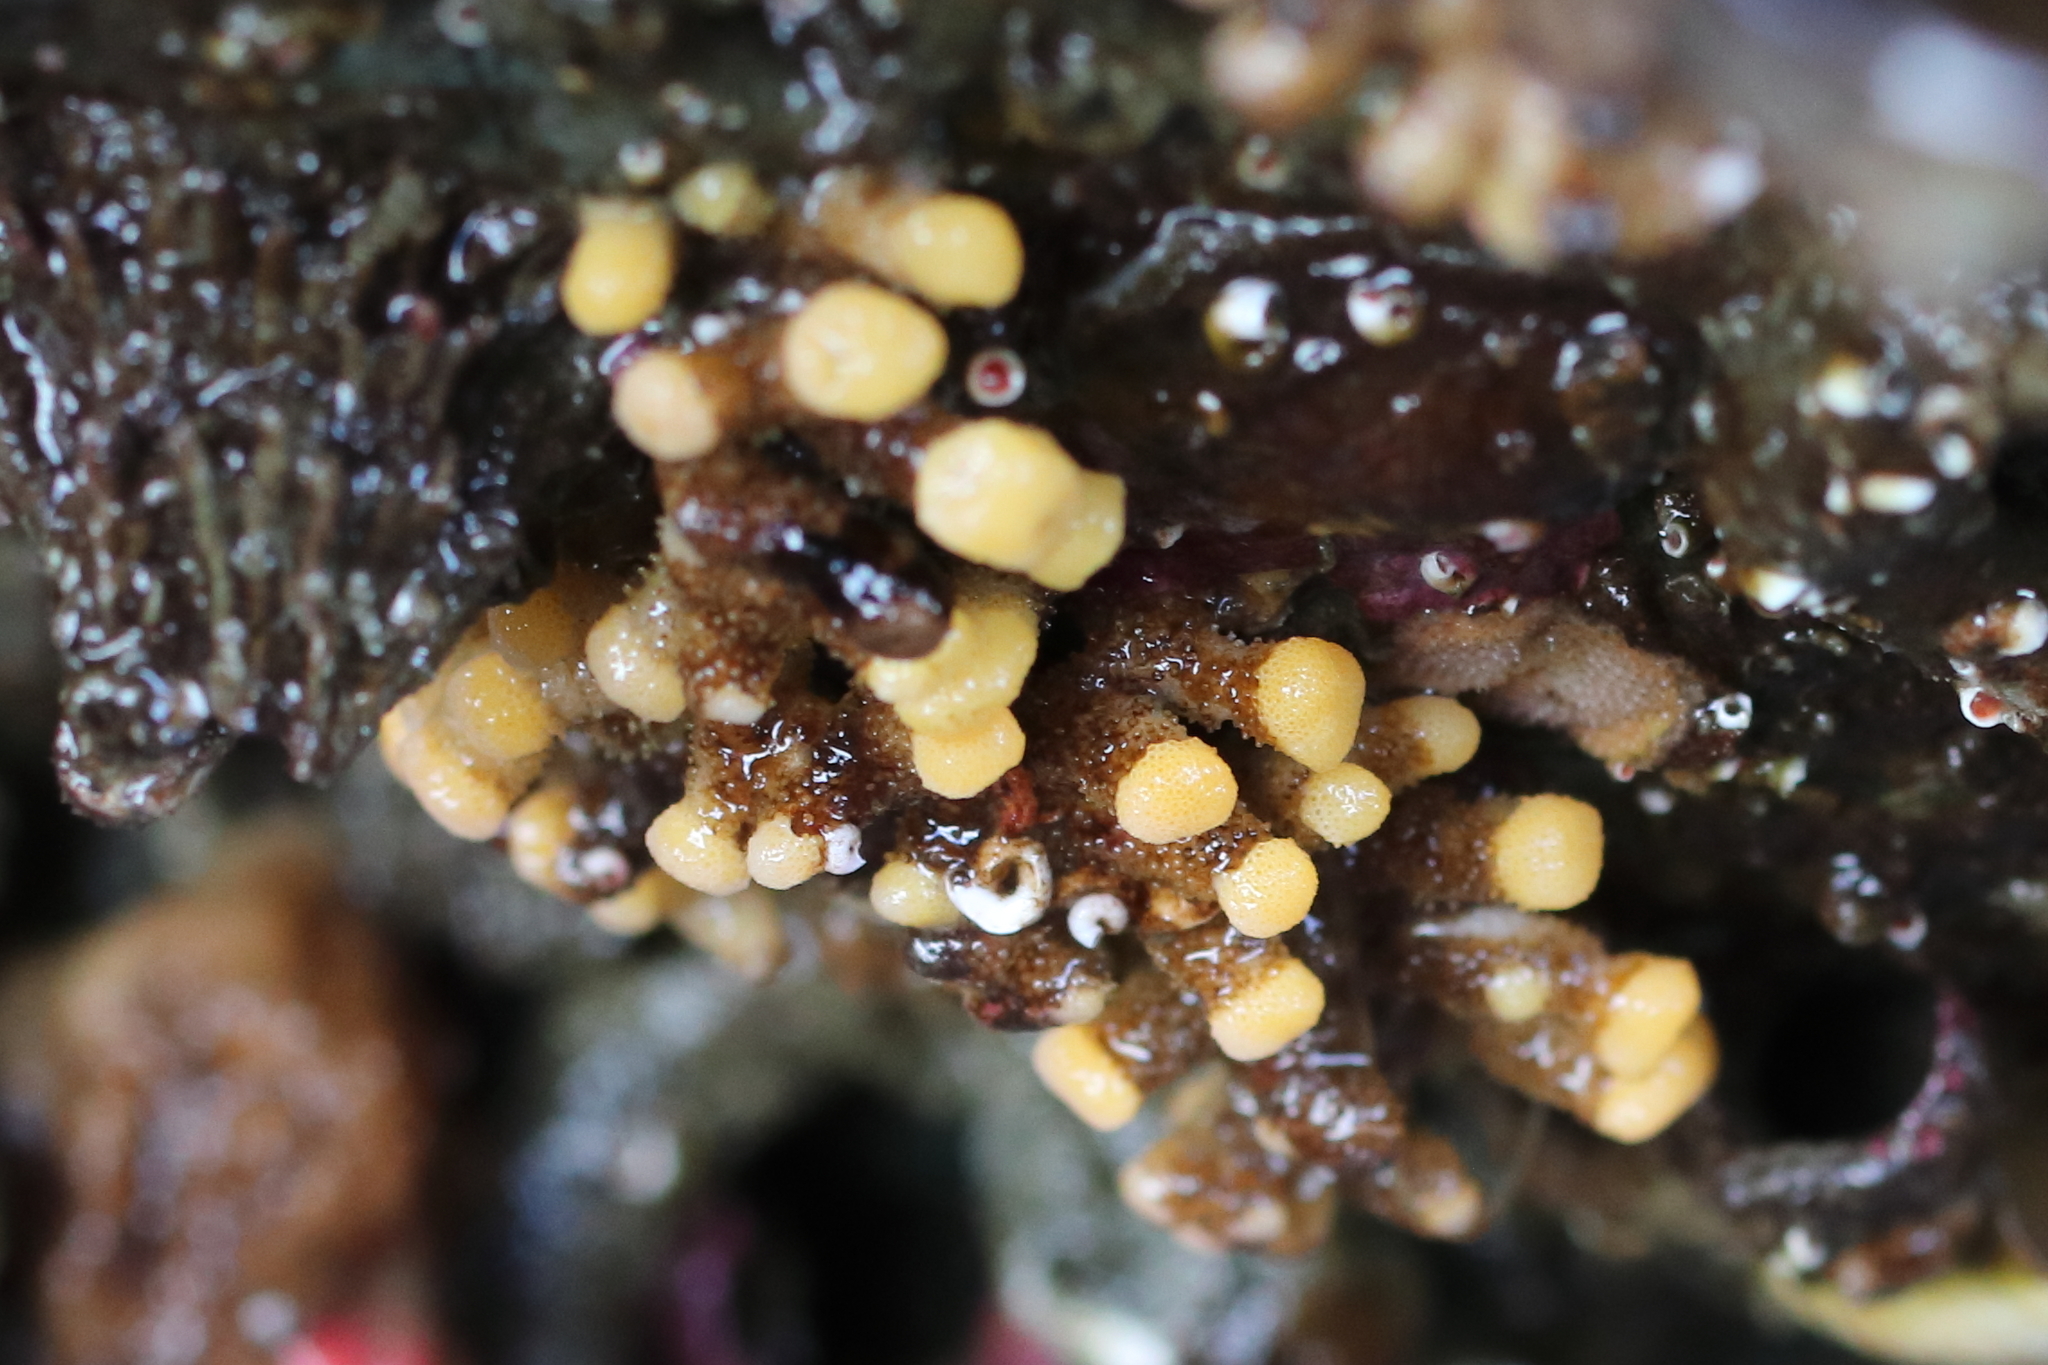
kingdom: Animalia
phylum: Bryozoa
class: Stenolaemata
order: Cyclostomatida
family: Heteroporidae
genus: Heteropora
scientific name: Heteropora pacifica
